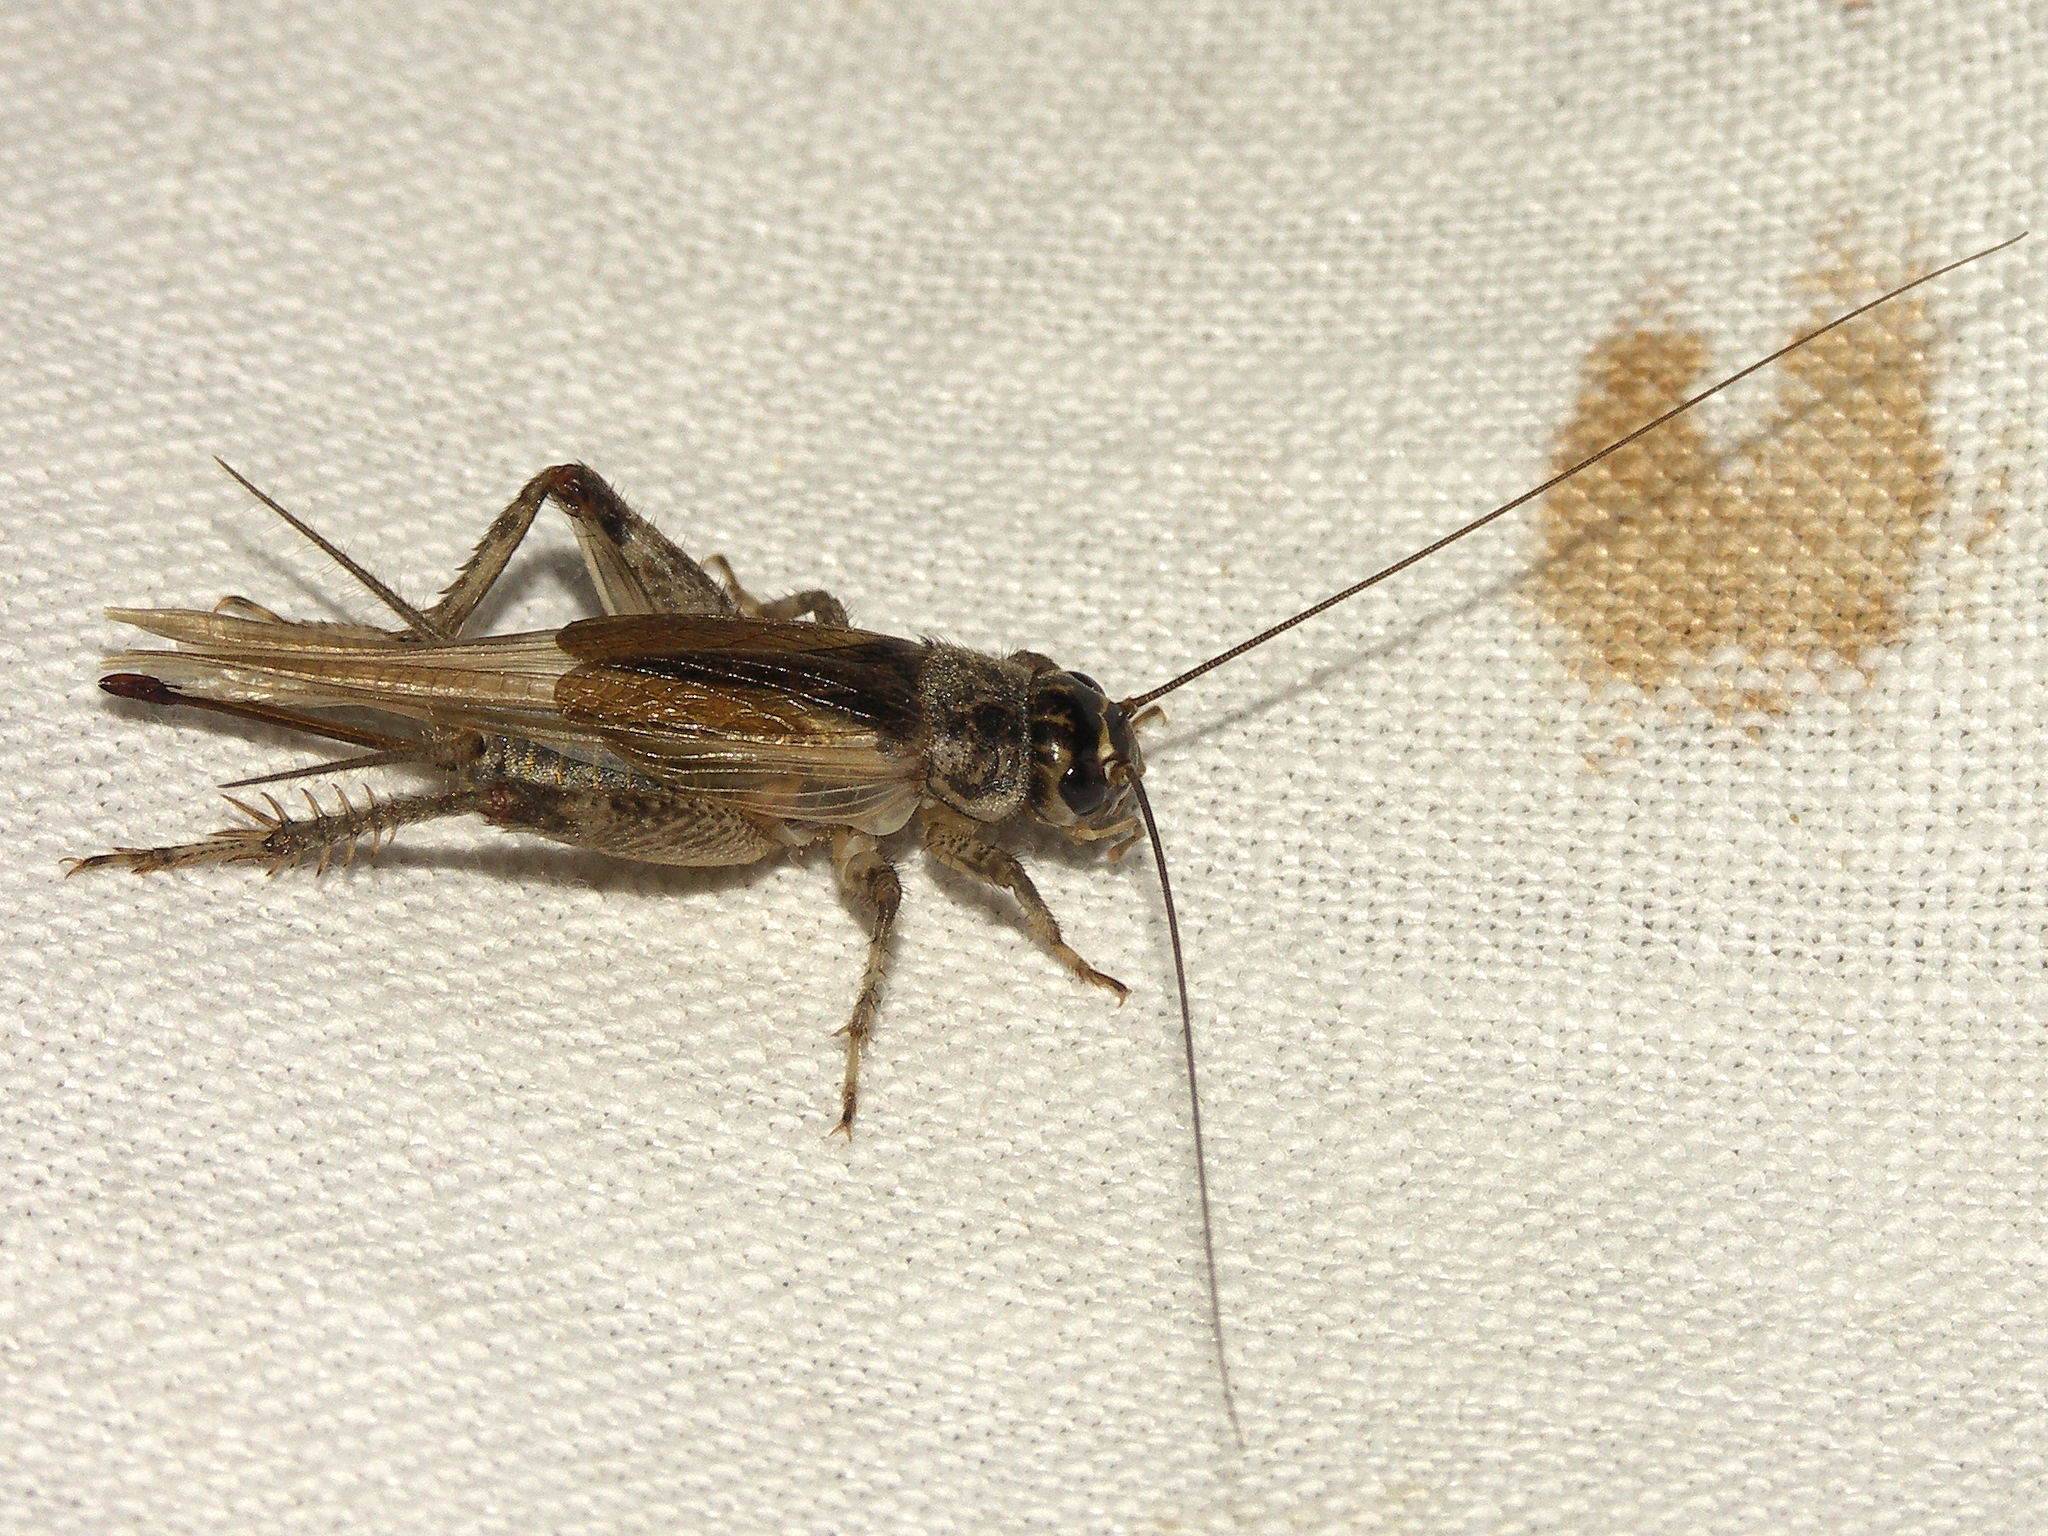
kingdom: Animalia
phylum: Arthropoda
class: Insecta
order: Orthoptera
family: Gryllidae
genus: Eumodicogryllus
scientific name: Eumodicogryllus bordigalensis
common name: Bordeaux cricket
